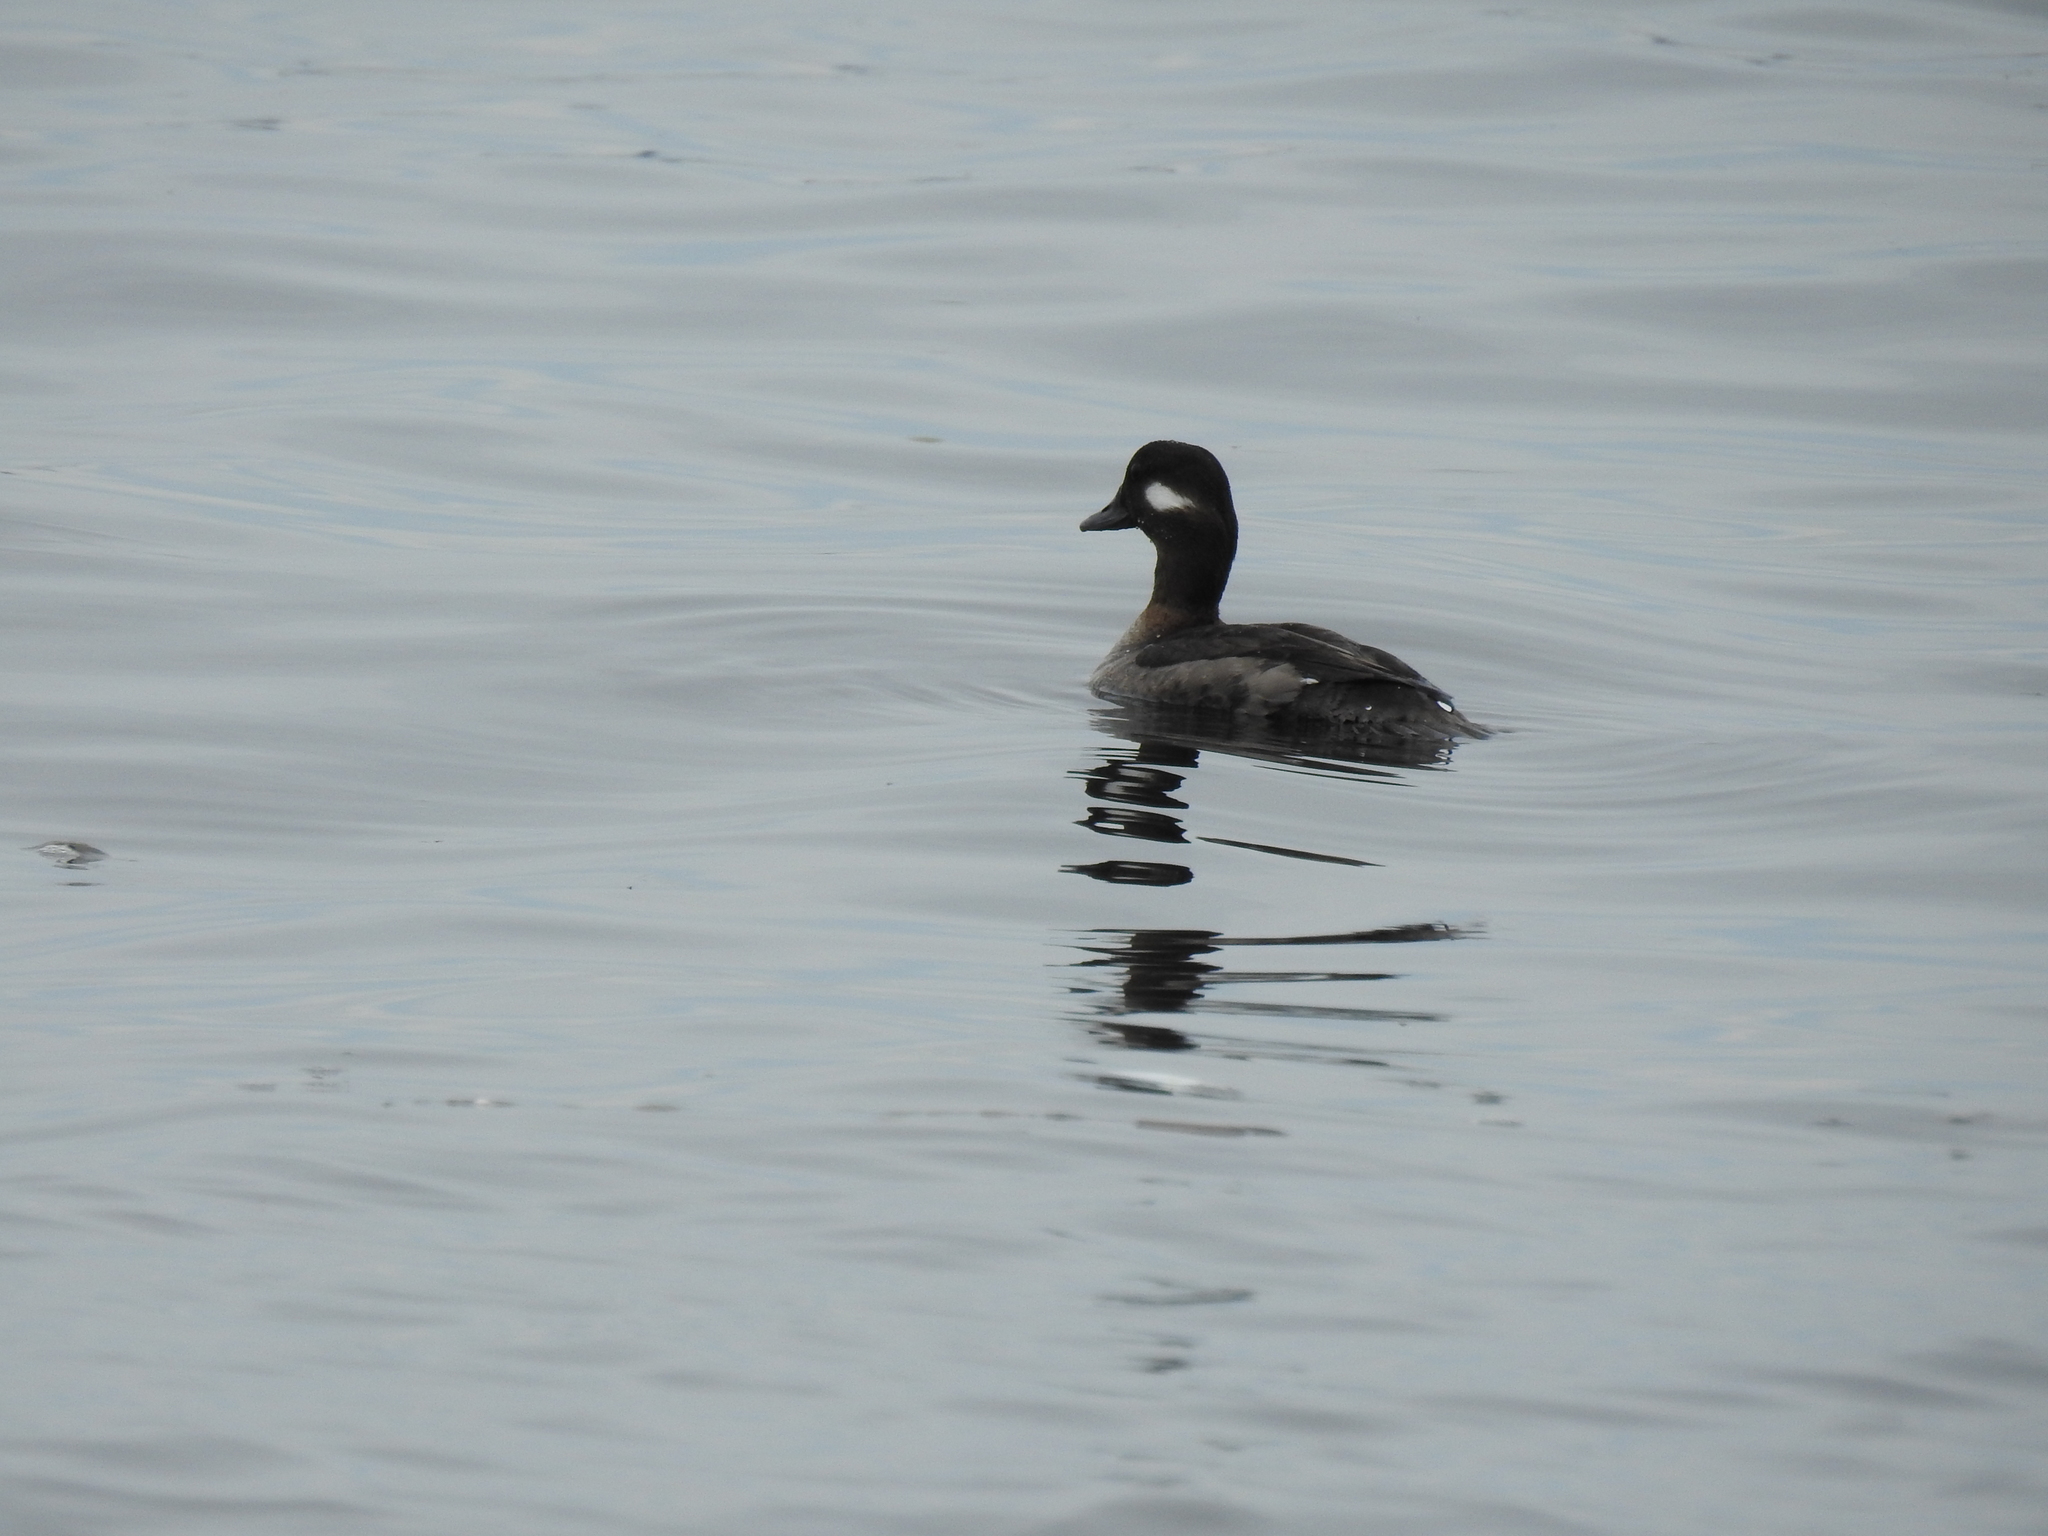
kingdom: Animalia
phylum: Chordata
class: Aves
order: Anseriformes
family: Anatidae
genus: Bucephala
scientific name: Bucephala albeola
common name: Bufflehead
